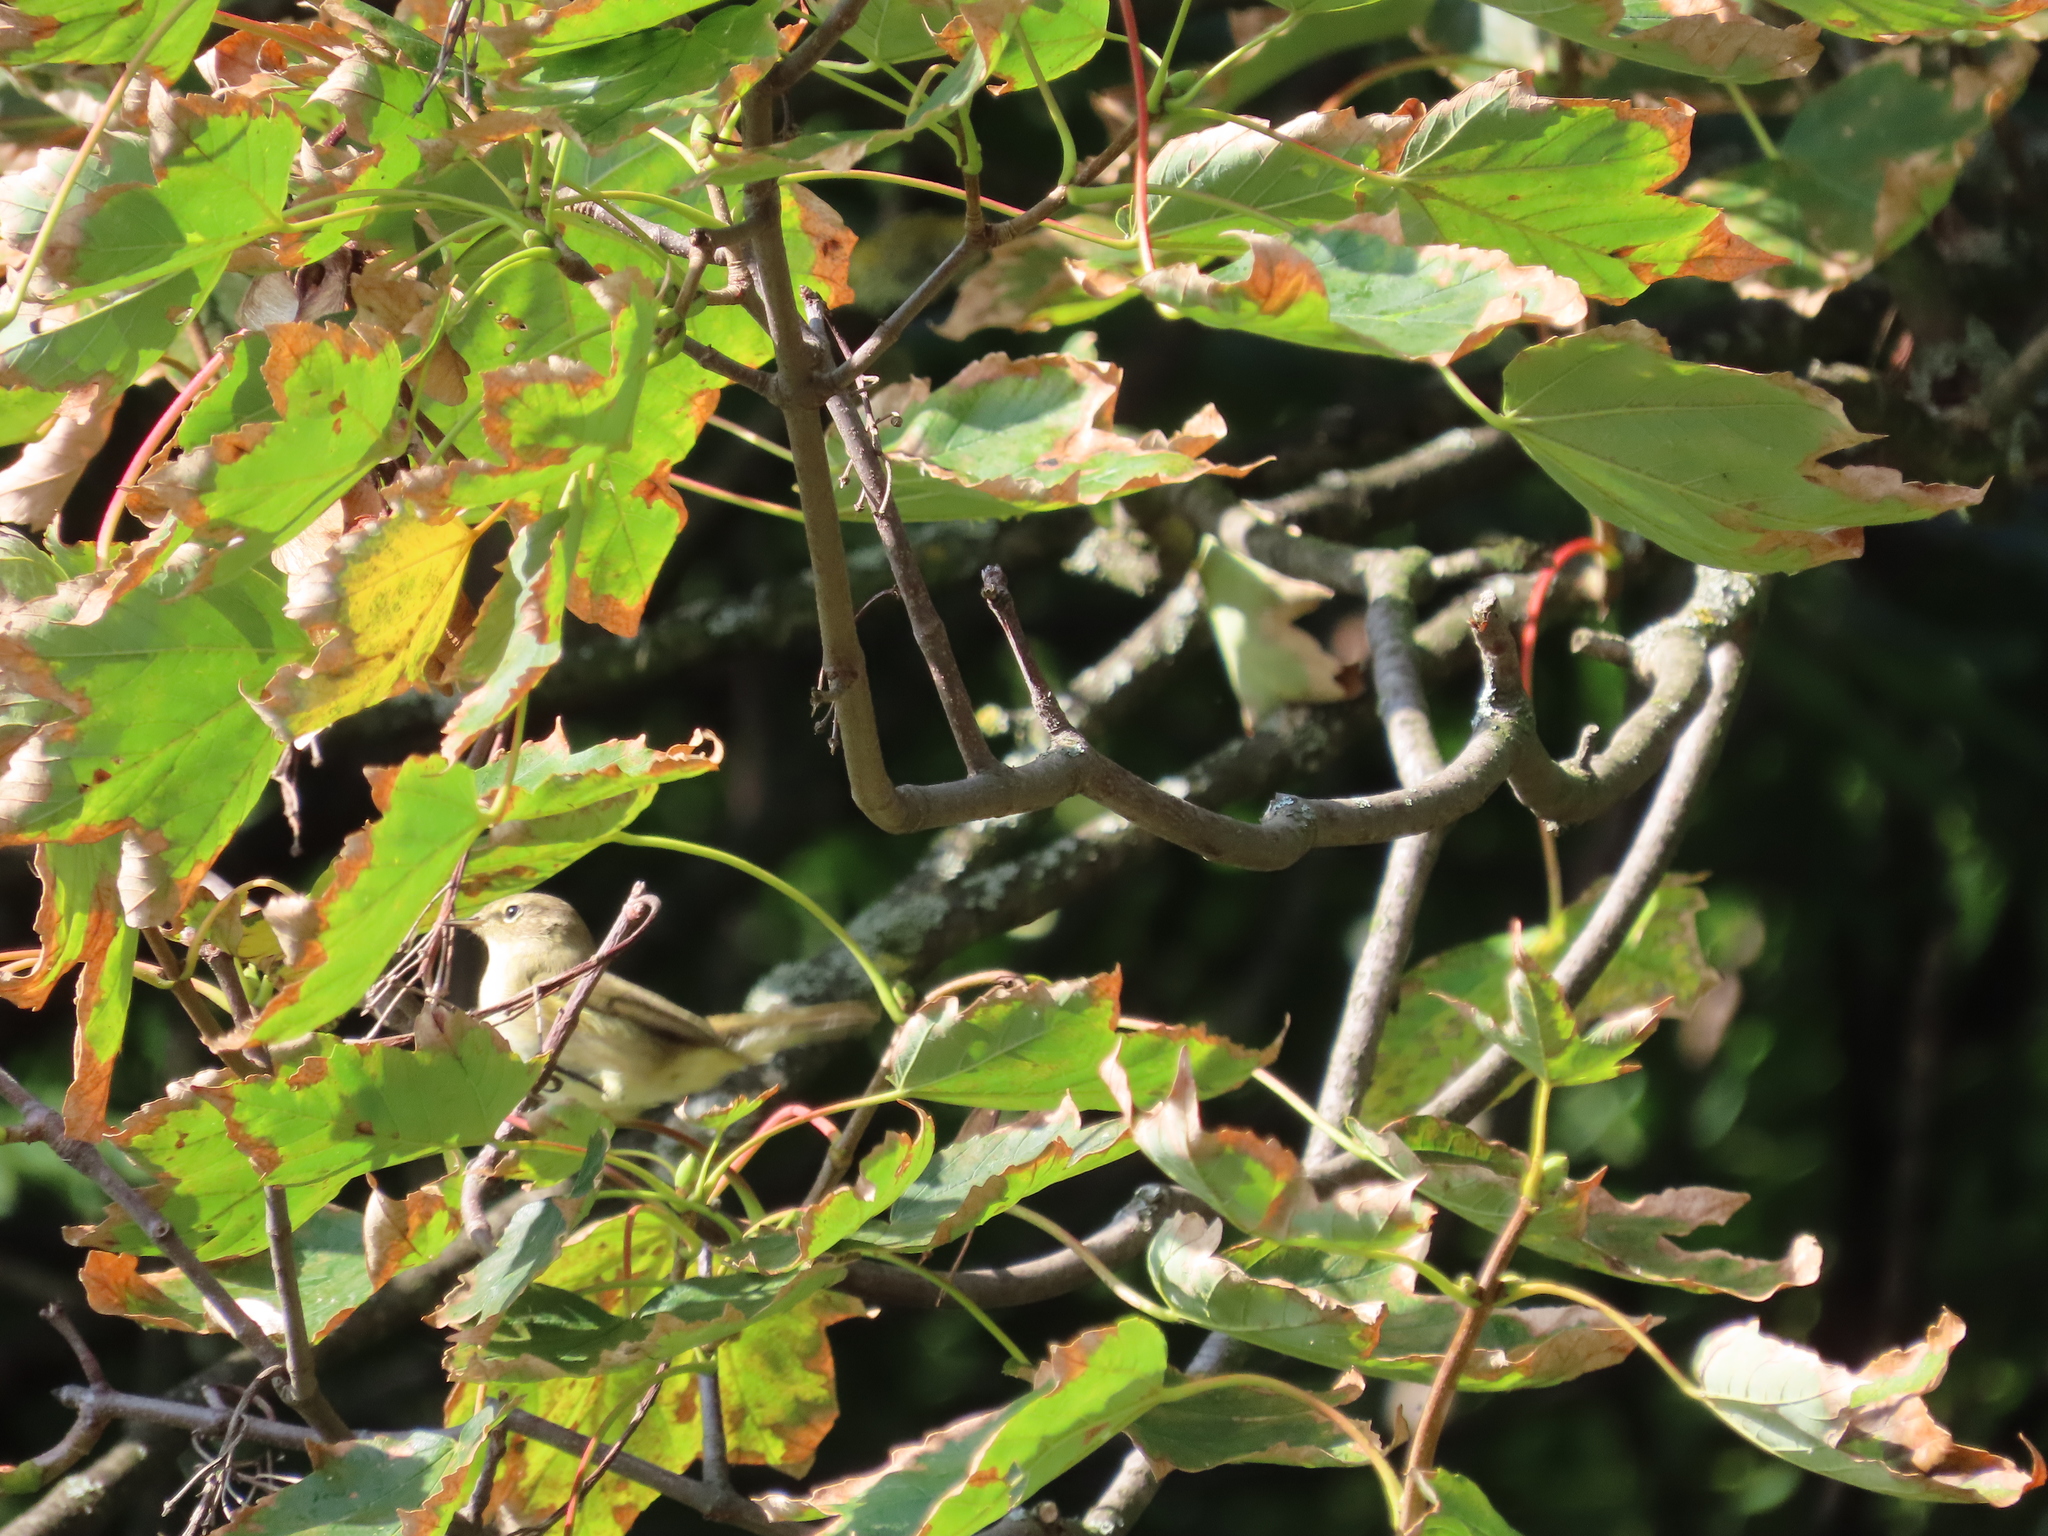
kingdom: Animalia
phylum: Chordata
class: Aves
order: Passeriformes
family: Phylloscopidae
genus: Phylloscopus
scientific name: Phylloscopus collybita
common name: Common chiffchaff
